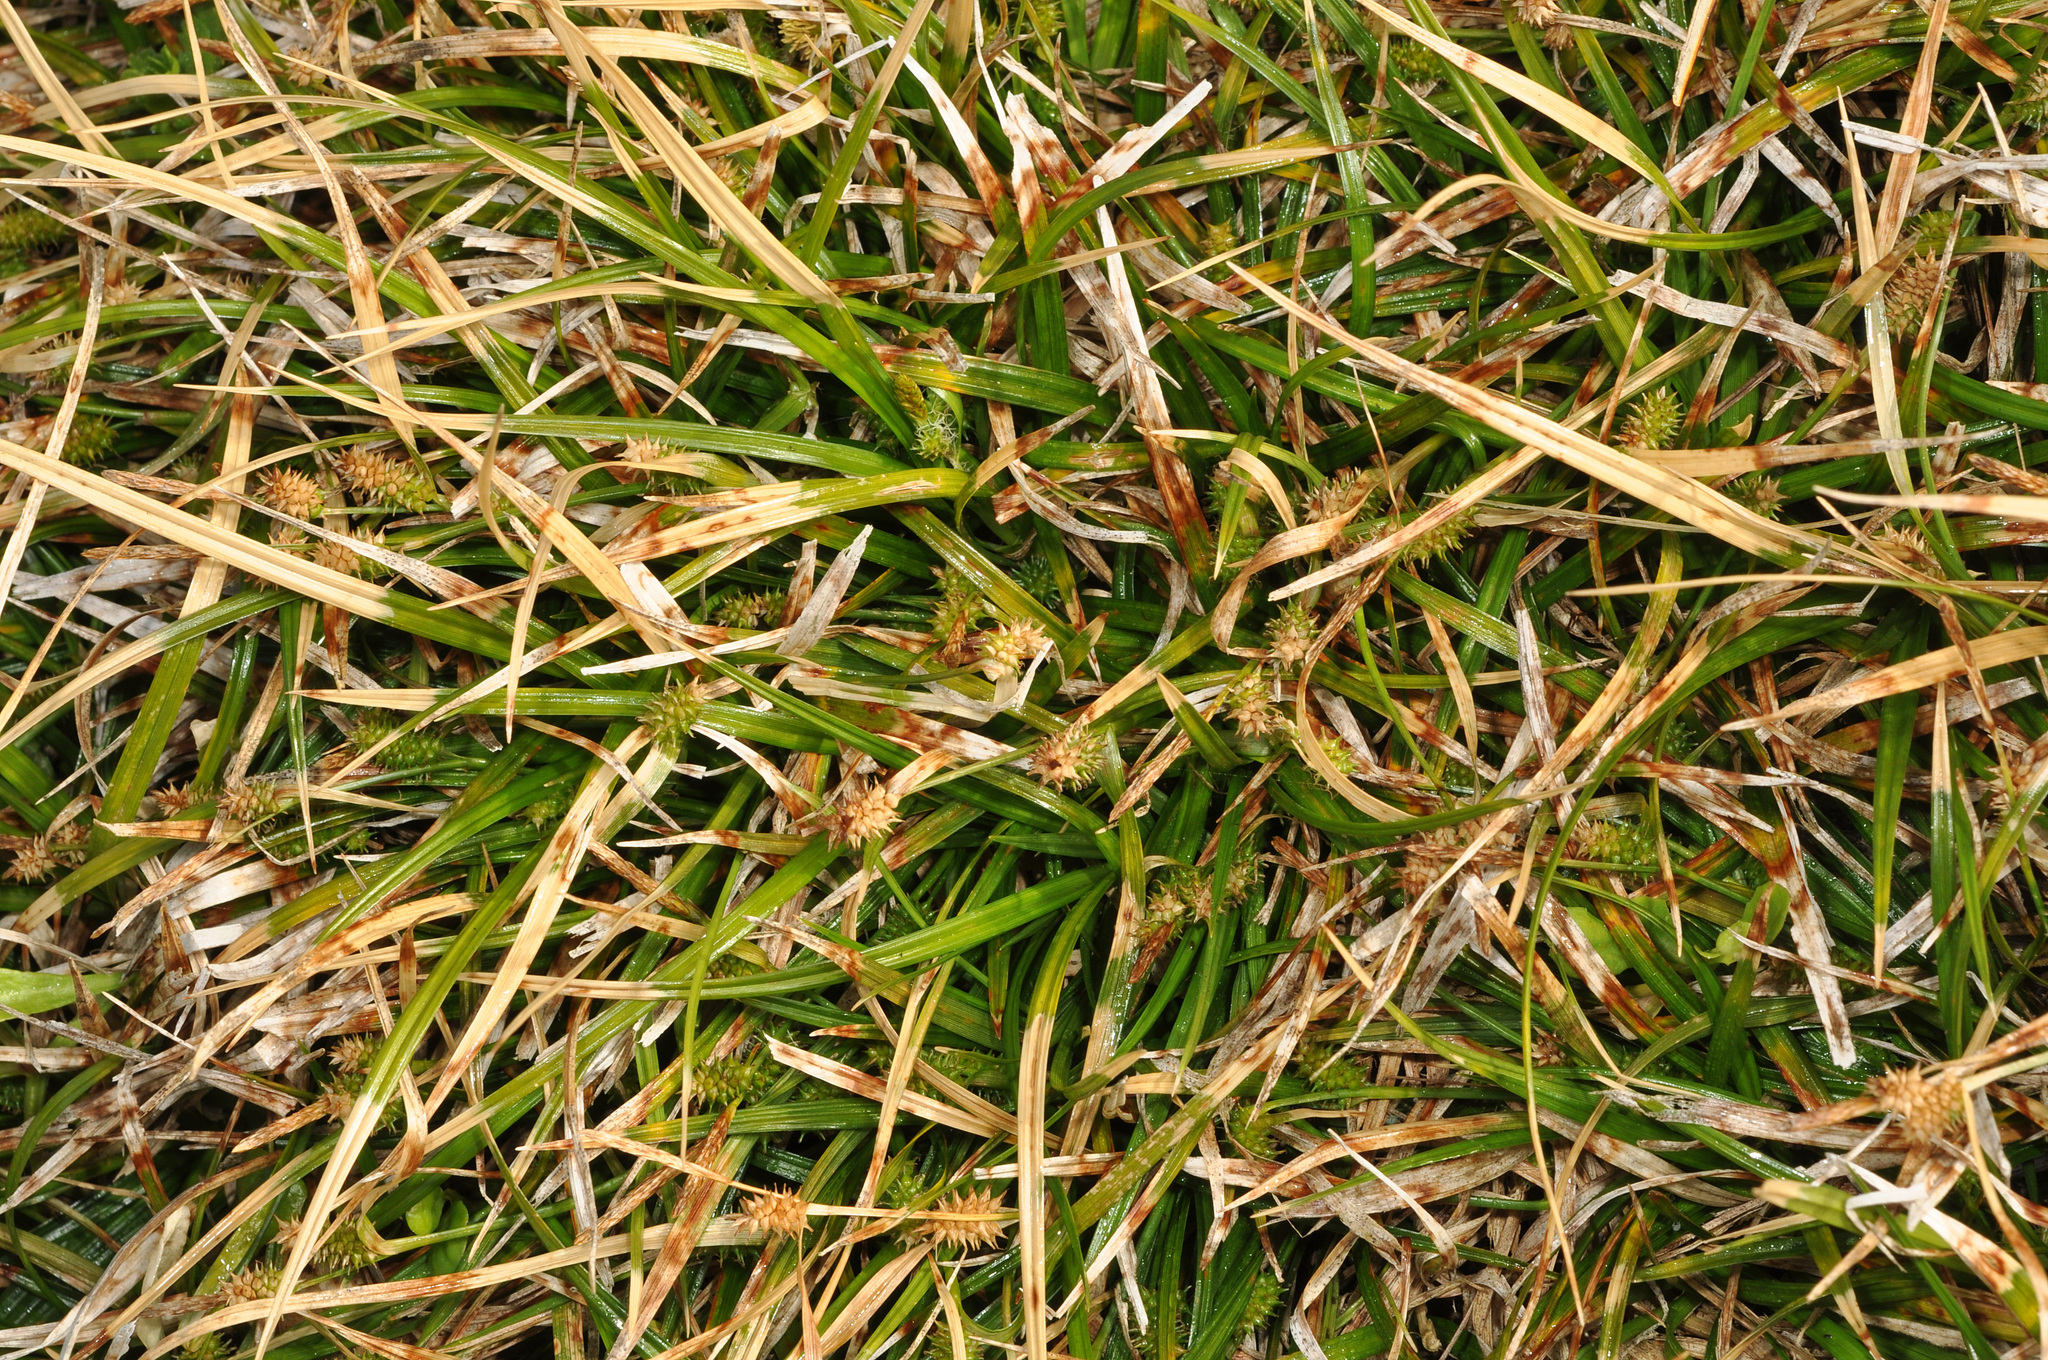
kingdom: Plantae
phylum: Tracheophyta
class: Liliopsida
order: Poales
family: Cyperaceae
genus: Carex
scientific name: Carex demissa
